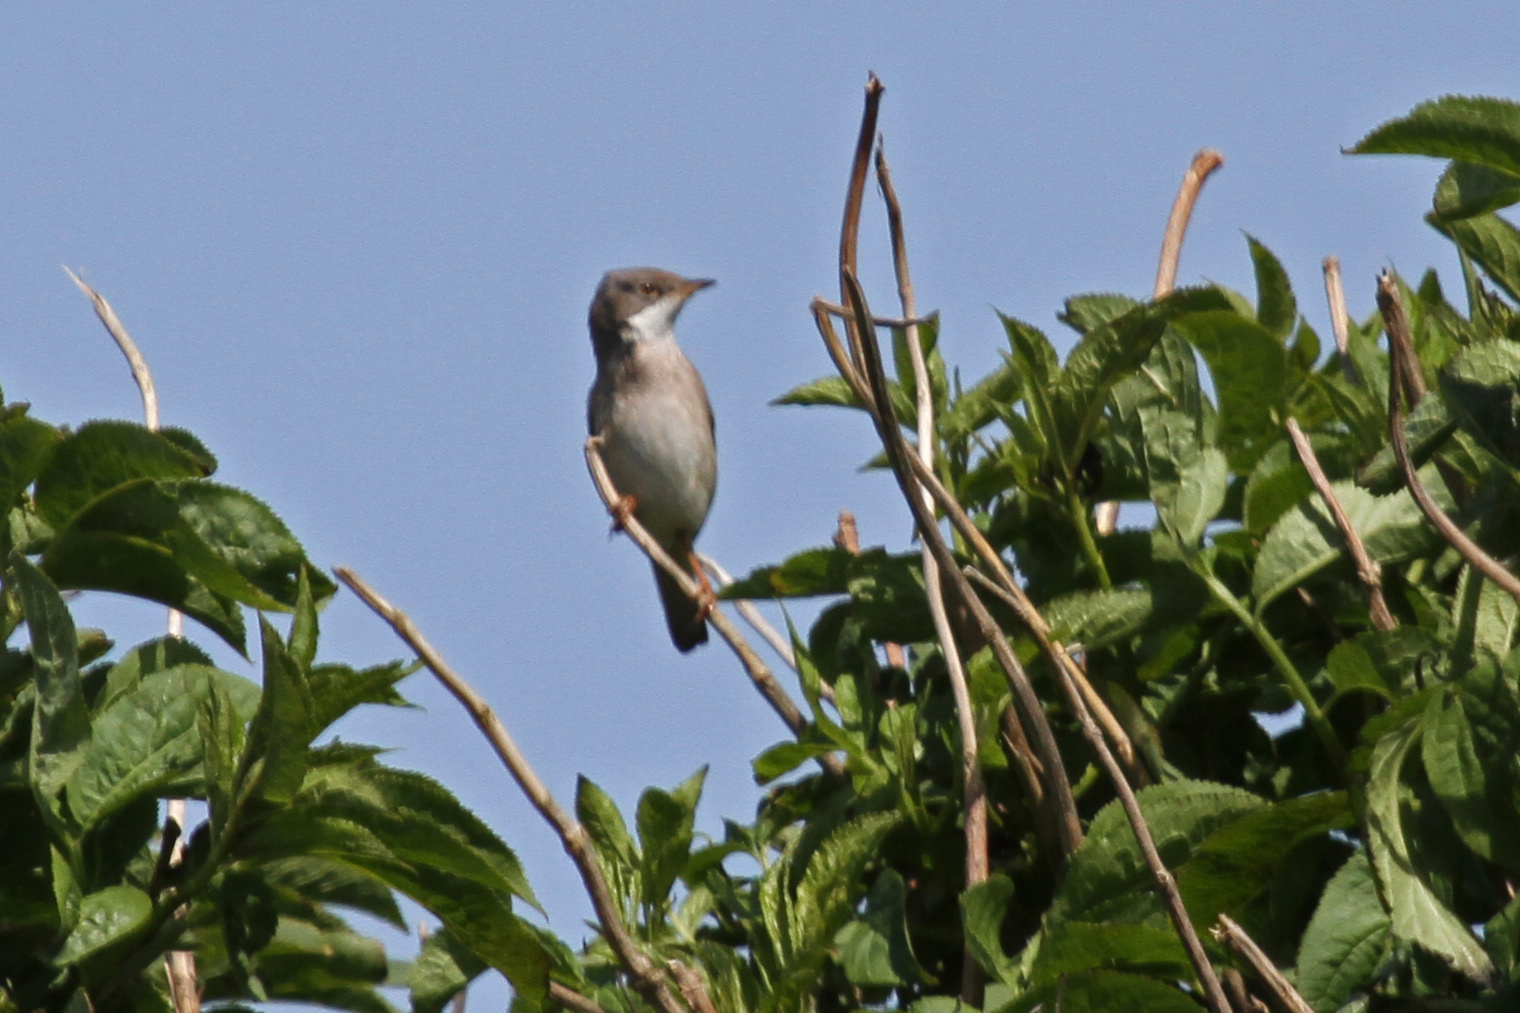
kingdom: Animalia
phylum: Chordata
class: Aves
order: Passeriformes
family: Sylviidae
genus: Sylvia
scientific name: Sylvia communis
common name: Common whitethroat
